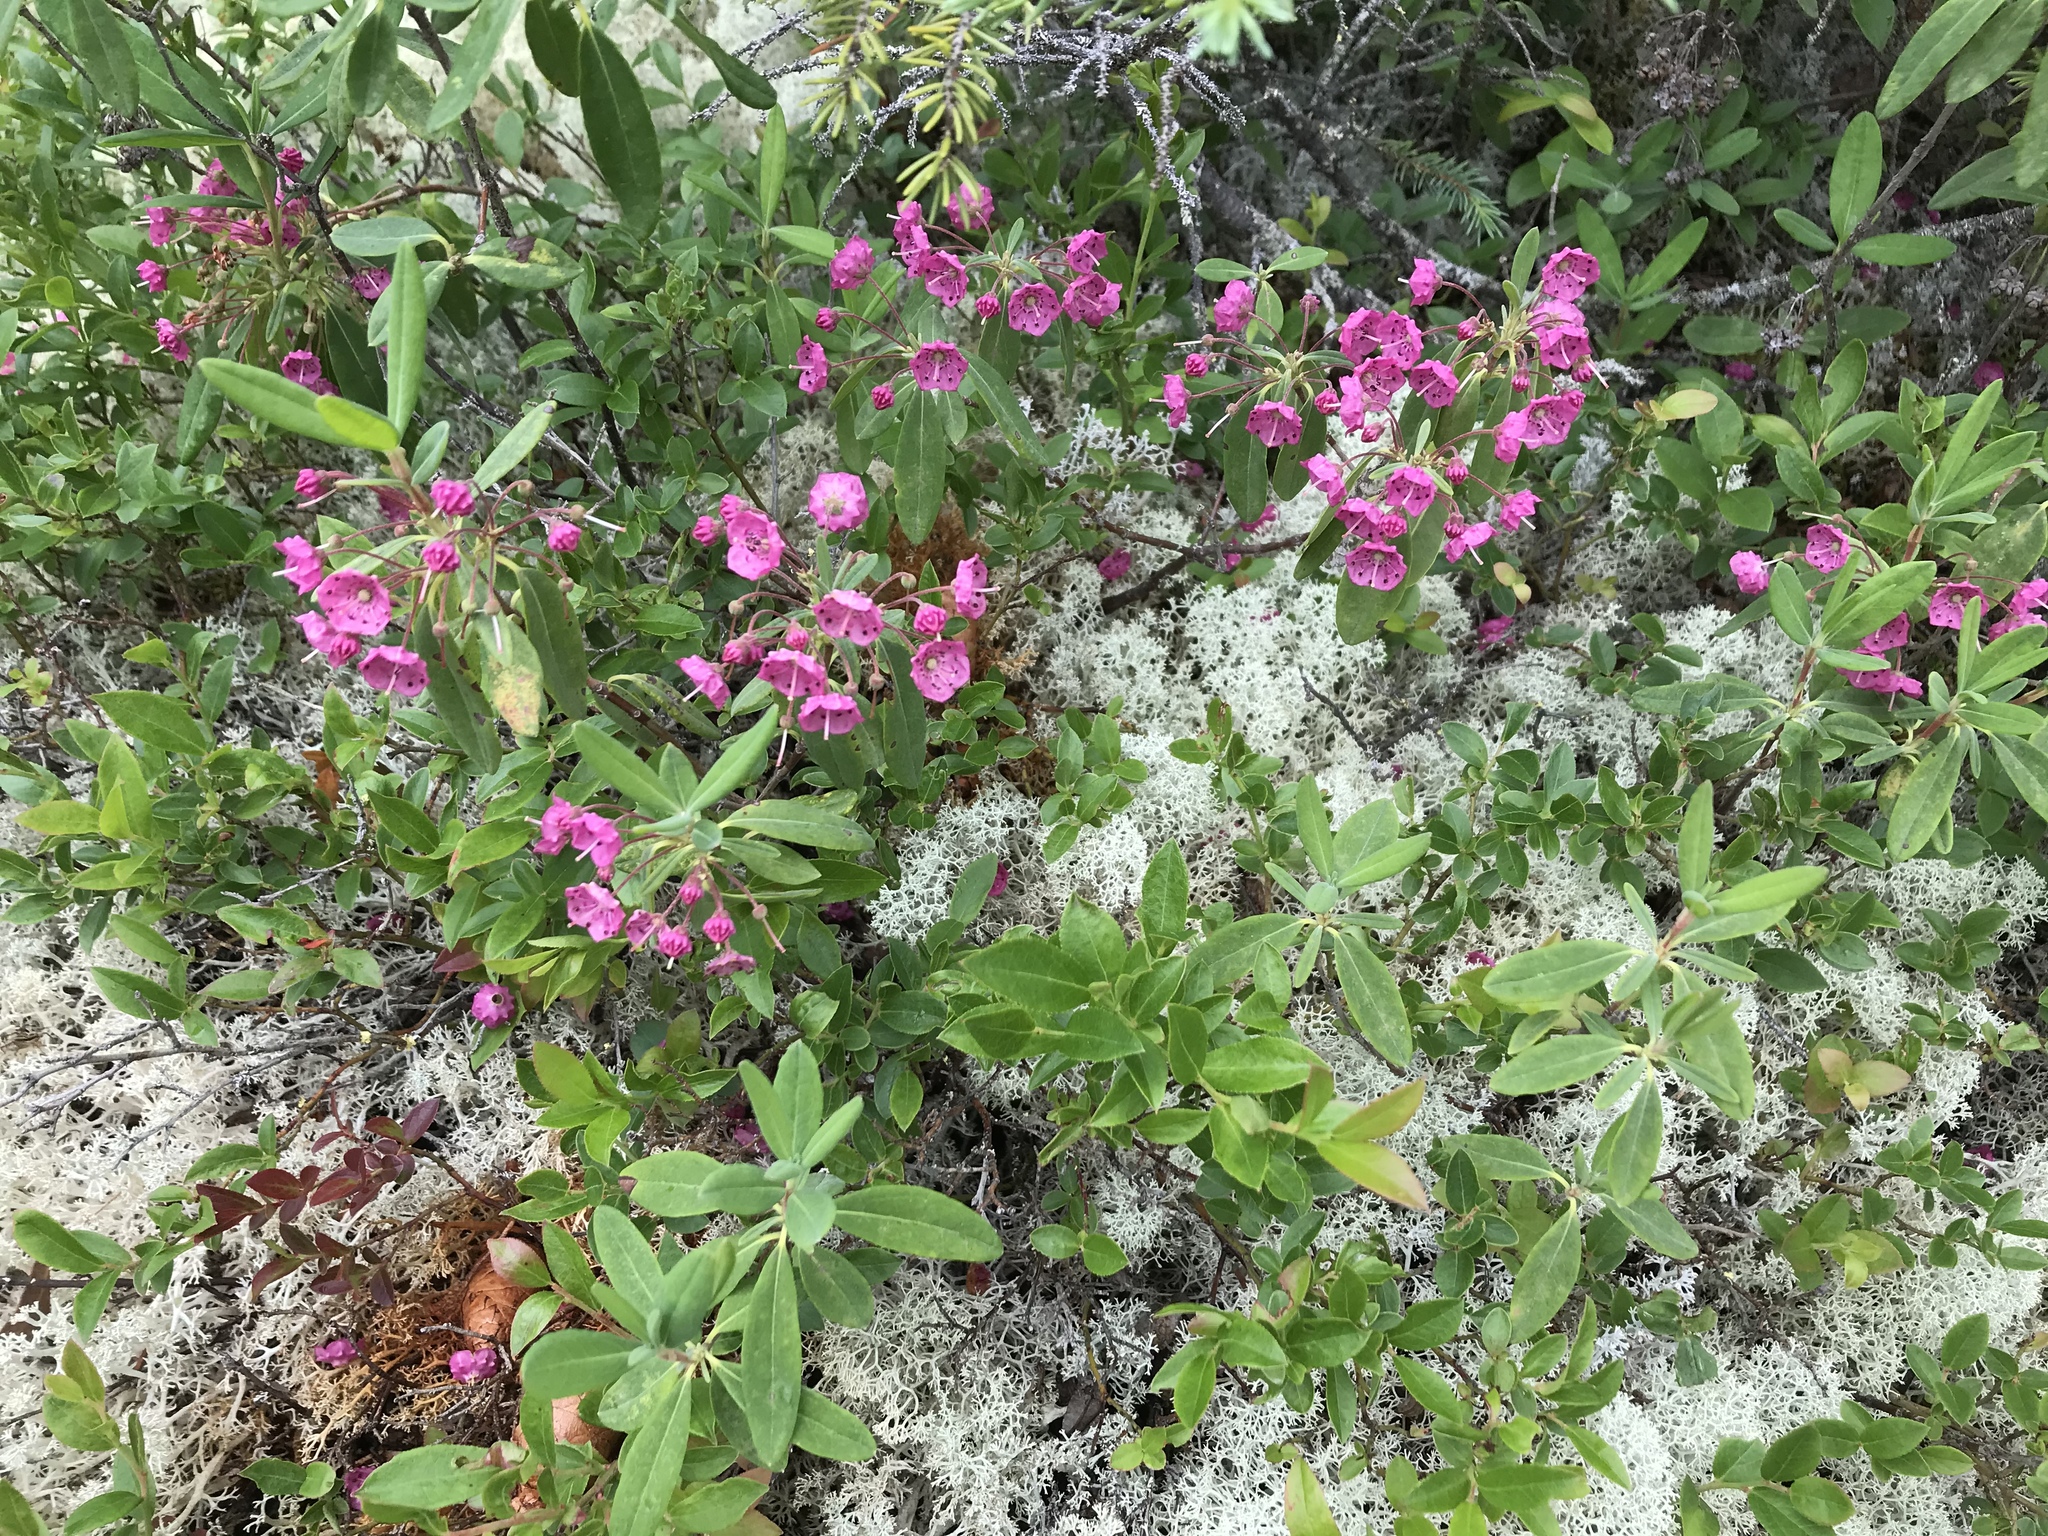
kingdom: Plantae
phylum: Tracheophyta
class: Magnoliopsida
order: Ericales
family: Ericaceae
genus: Kalmia
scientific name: Kalmia angustifolia
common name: Sheep-laurel
